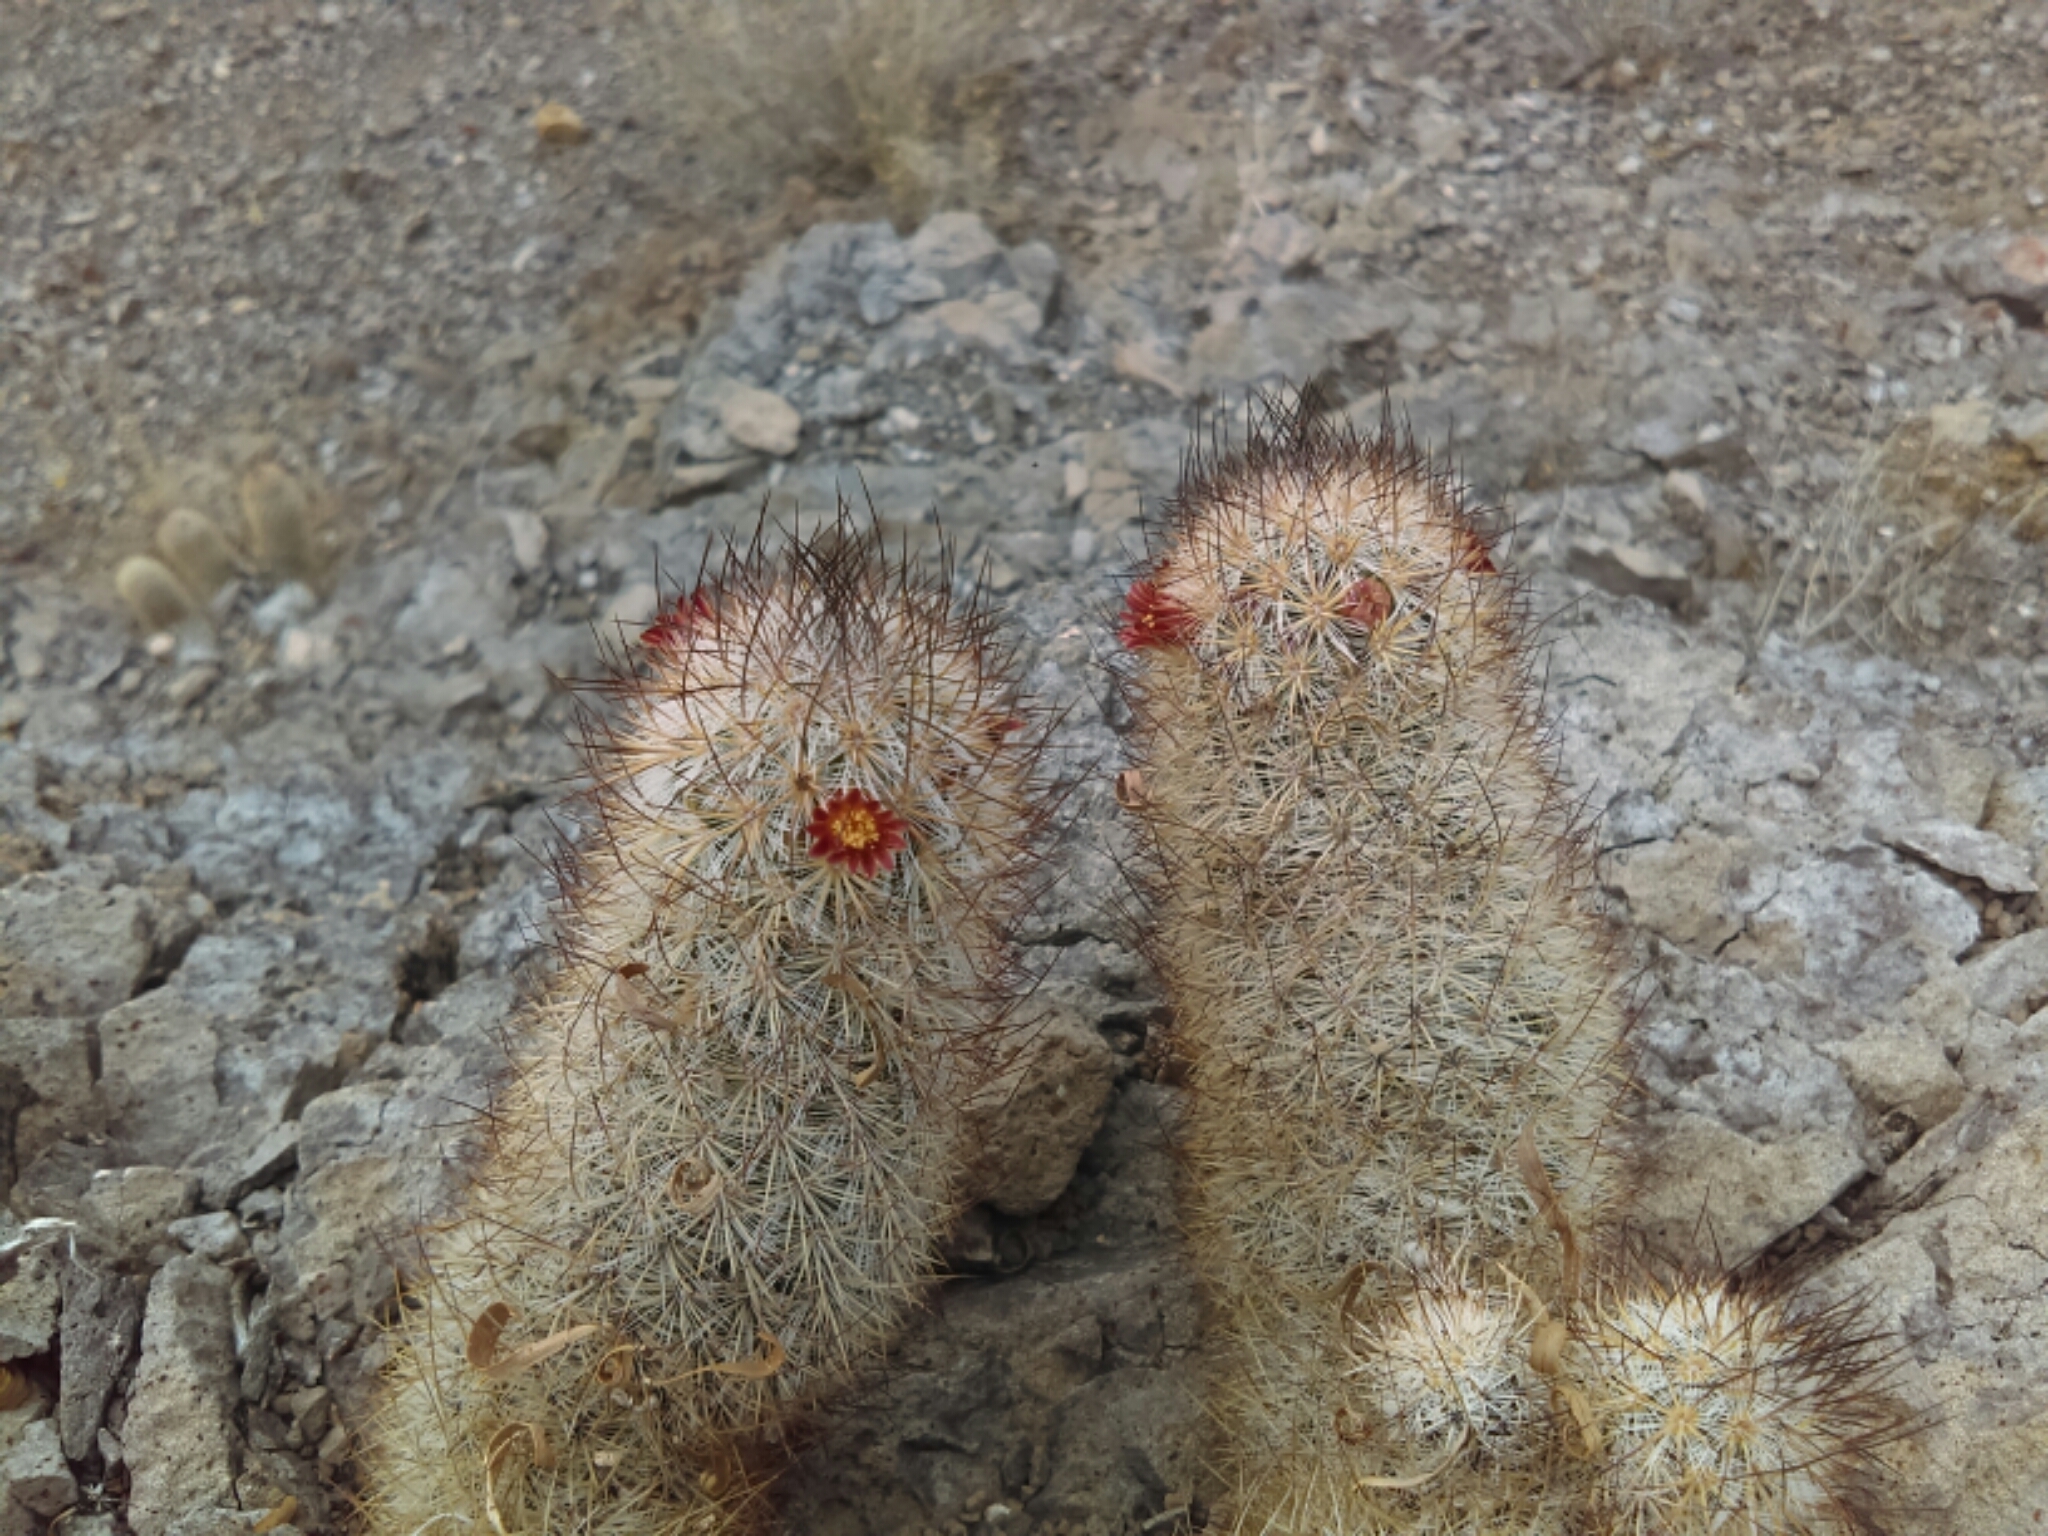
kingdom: Plantae
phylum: Tracheophyta
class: Magnoliopsida
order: Caryophyllales
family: Cactaceae
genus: Mammillaria
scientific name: Mammillaria pottsii
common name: Pott's nipple-cactus
